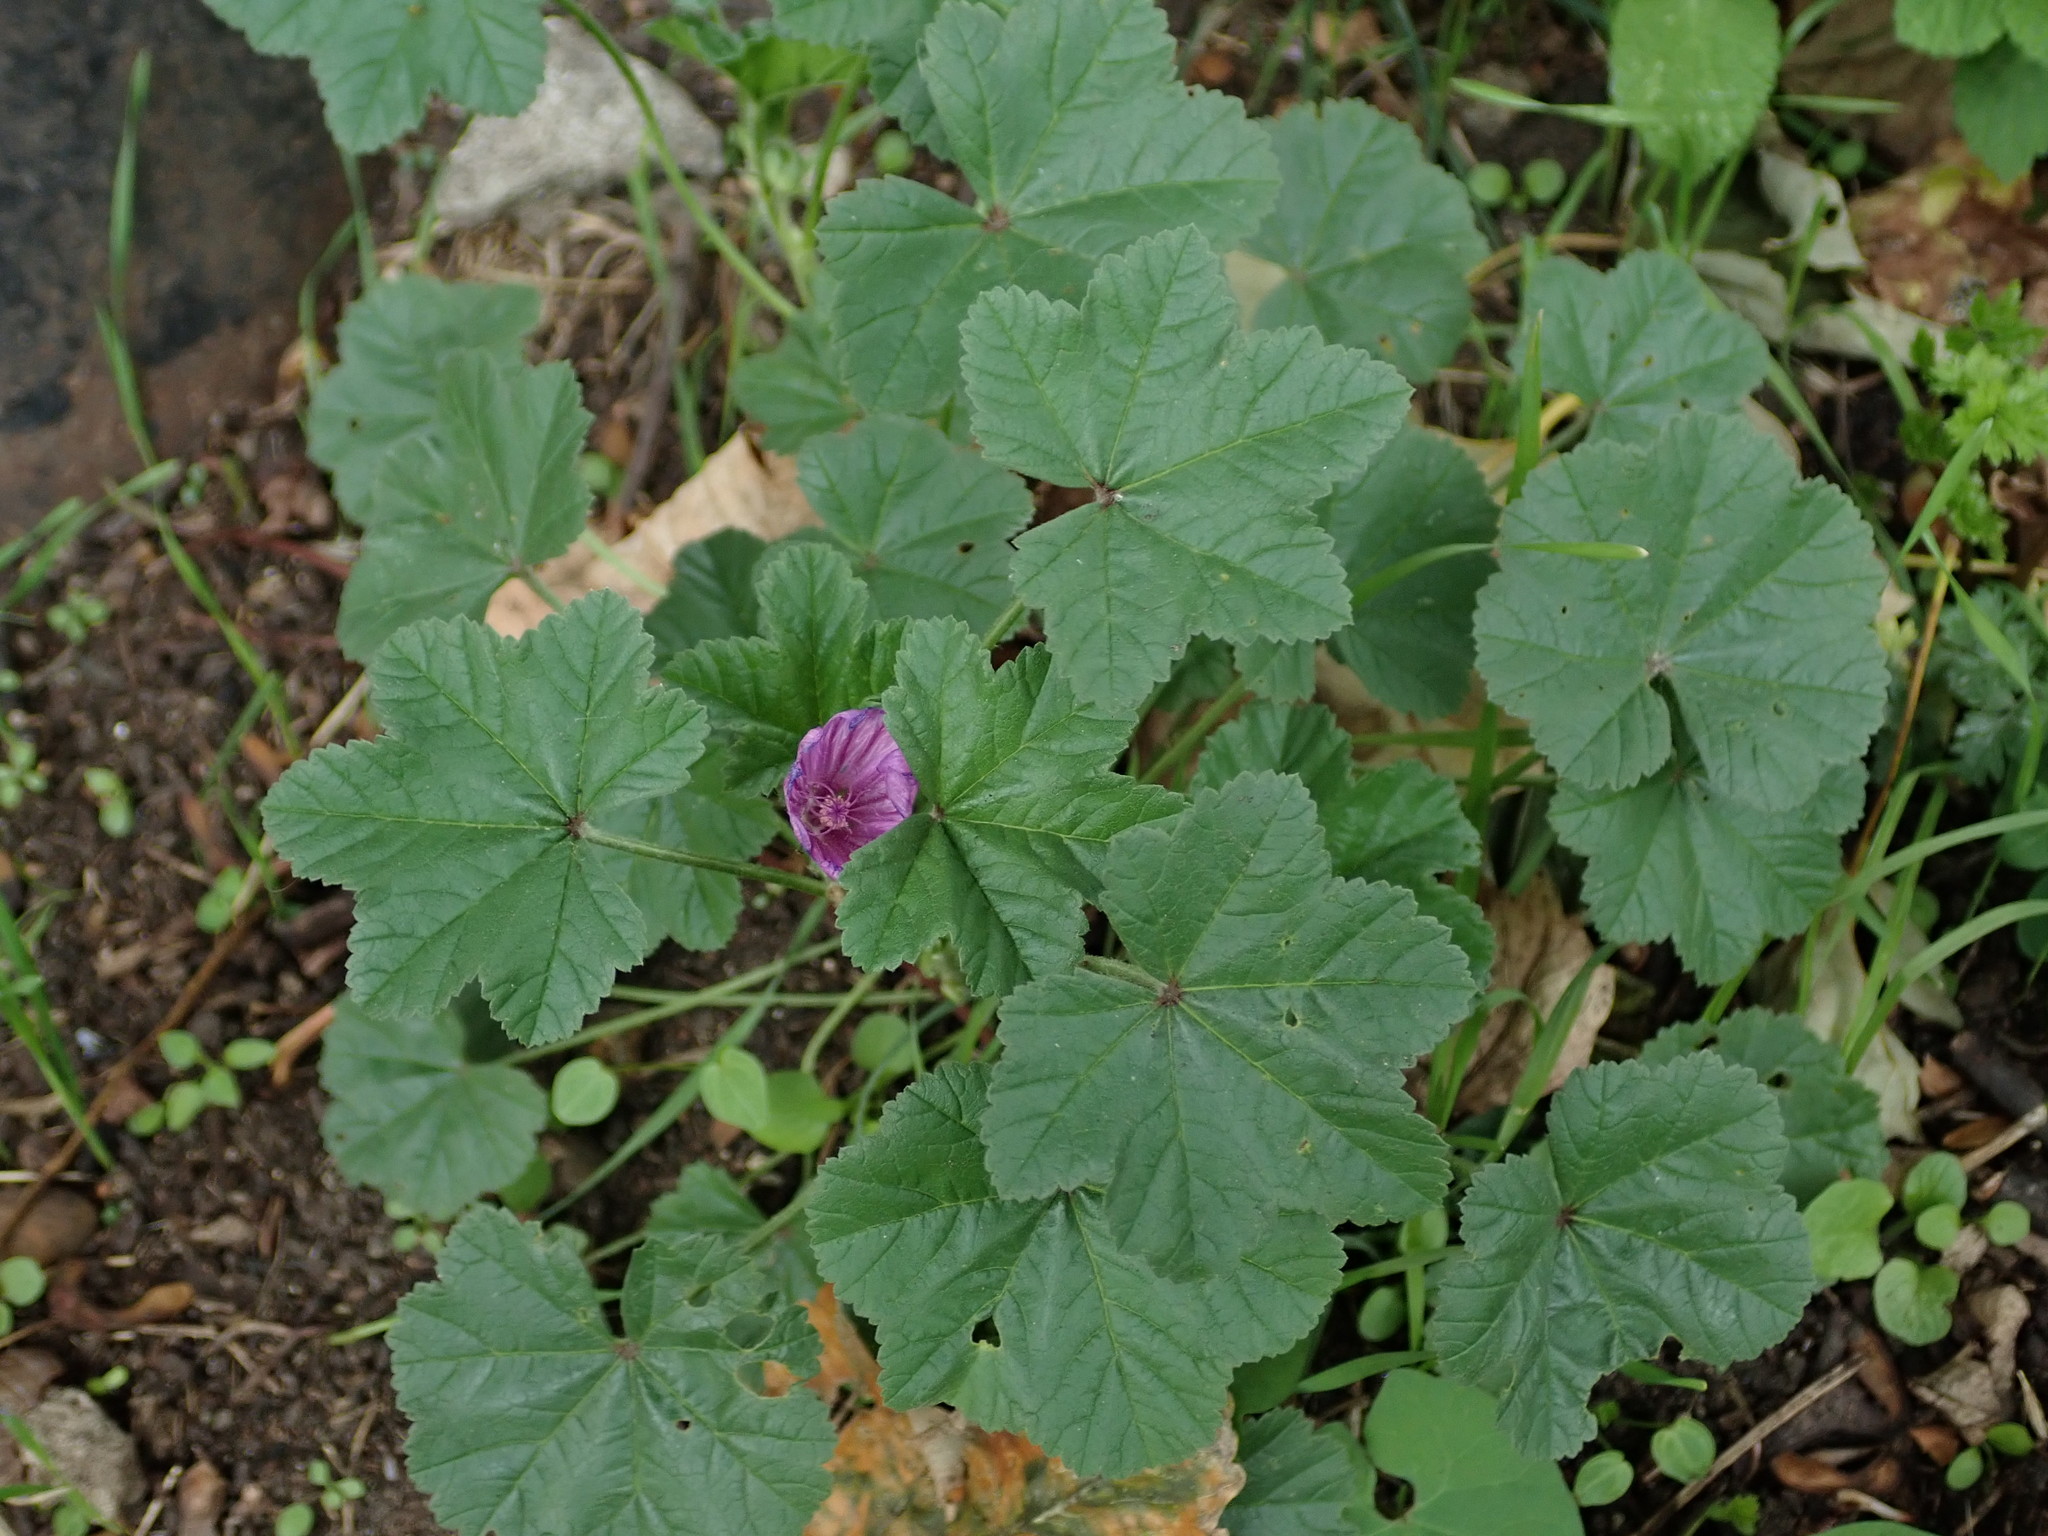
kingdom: Plantae
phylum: Tracheophyta
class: Magnoliopsida
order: Malvales
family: Malvaceae
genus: Malva
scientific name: Malva sylvestris
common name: Common mallow
